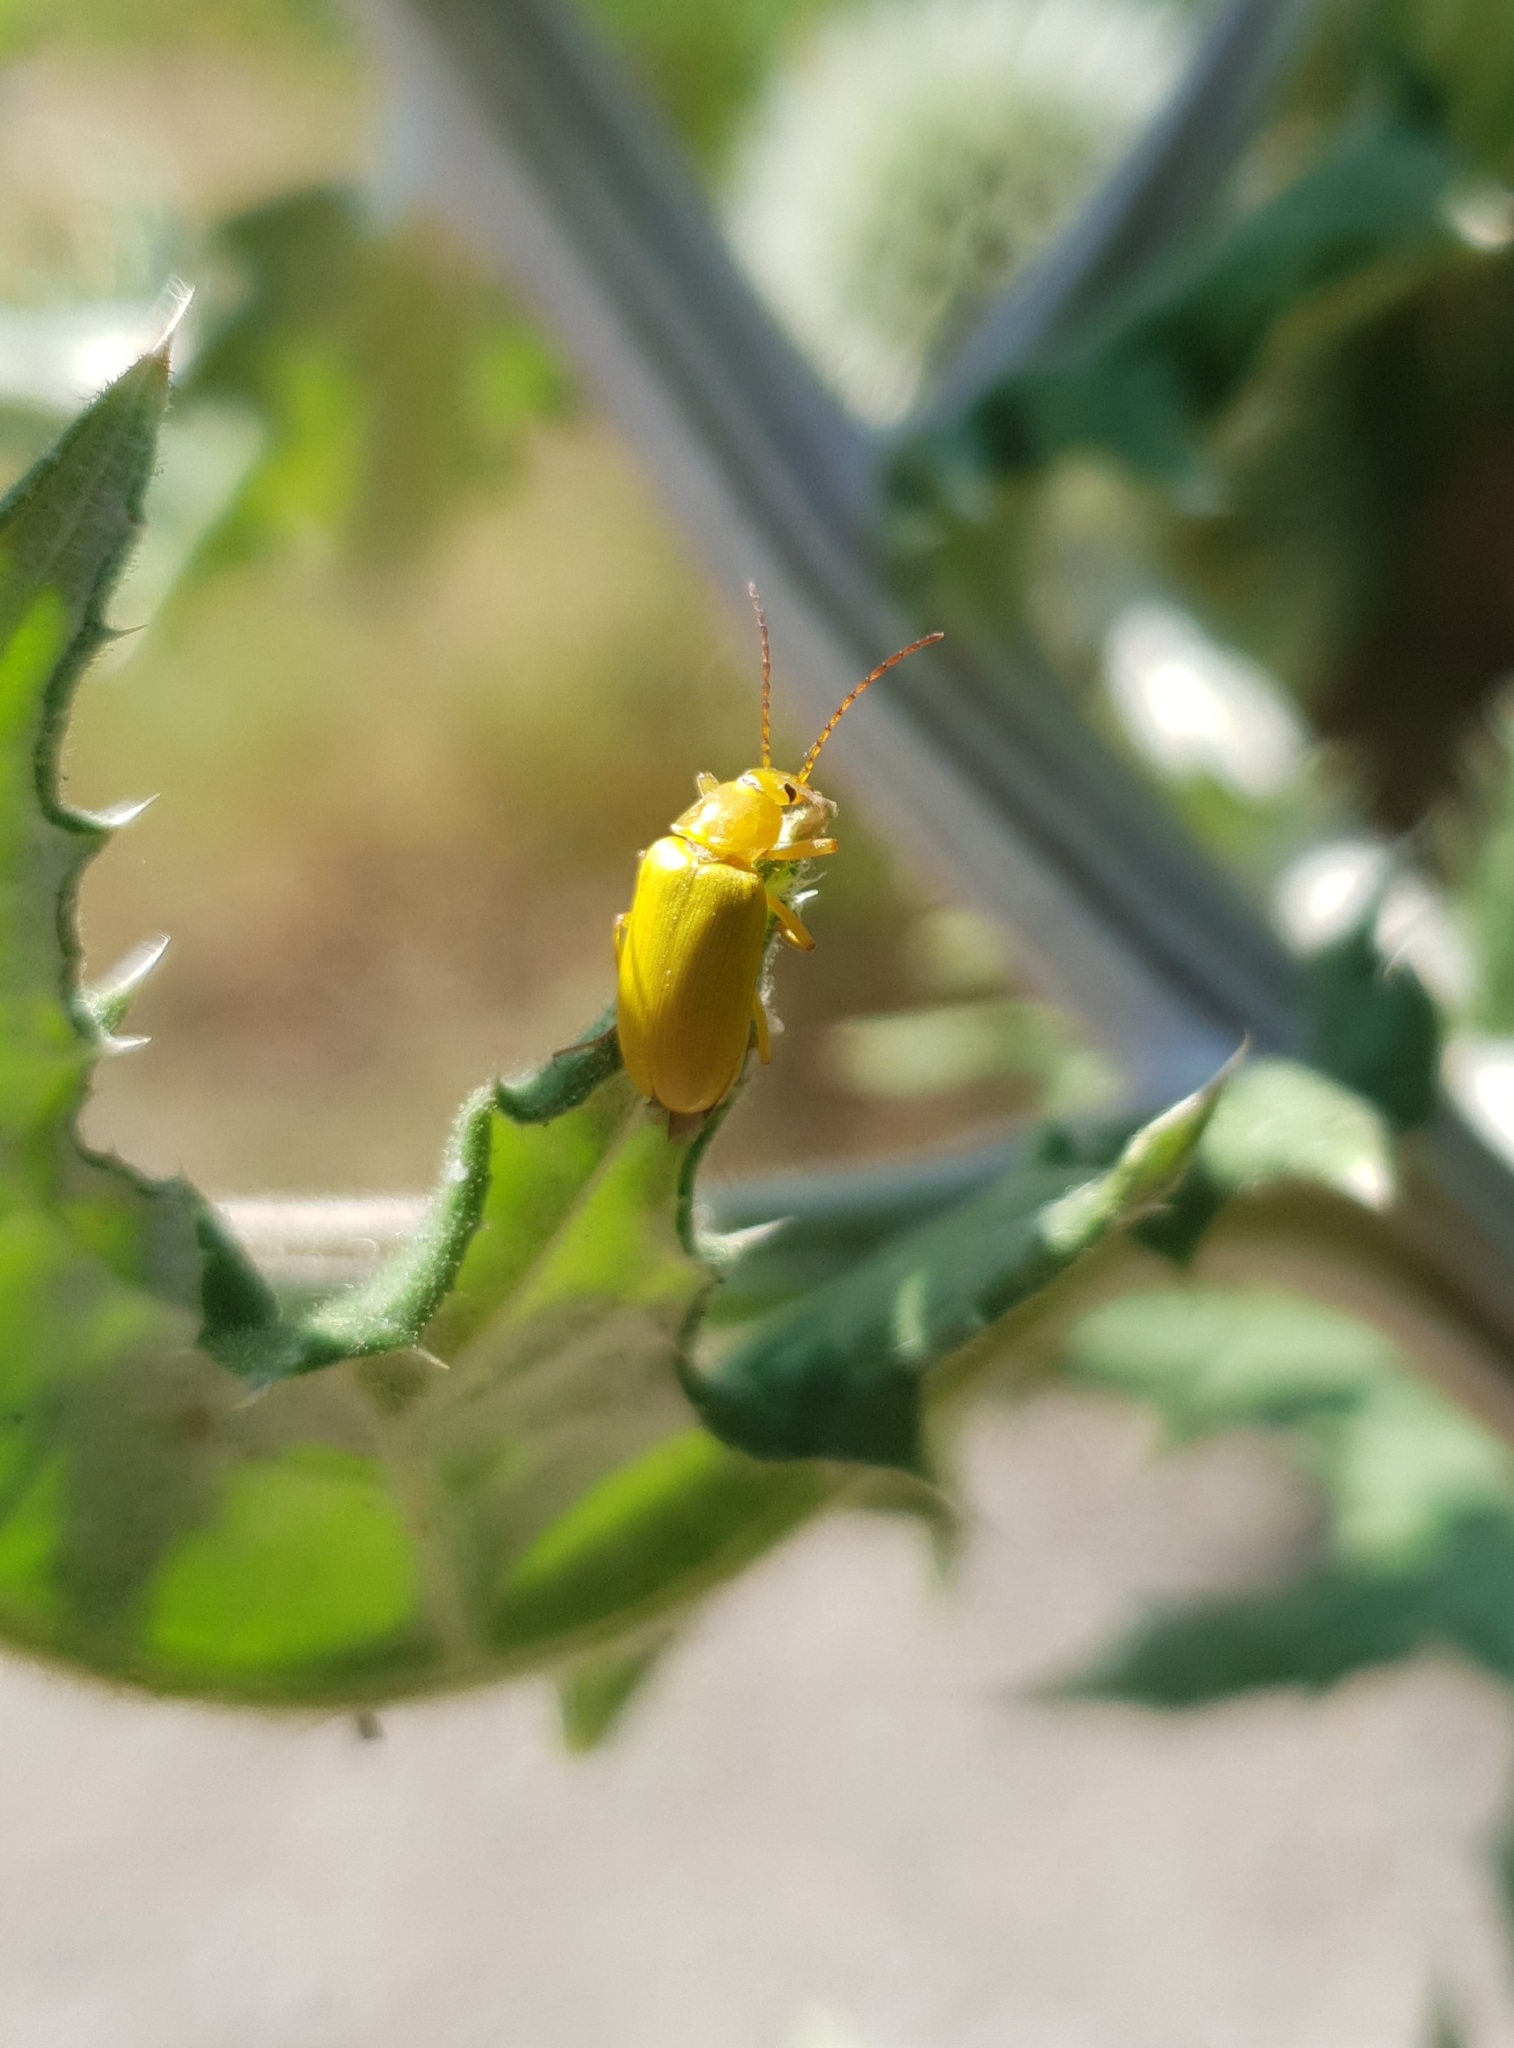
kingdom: Animalia
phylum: Arthropoda
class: Insecta
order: Coleoptera
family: Tenebrionidae
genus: Cteniopus
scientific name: Cteniopus sulphureus
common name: Sulphur beetle
